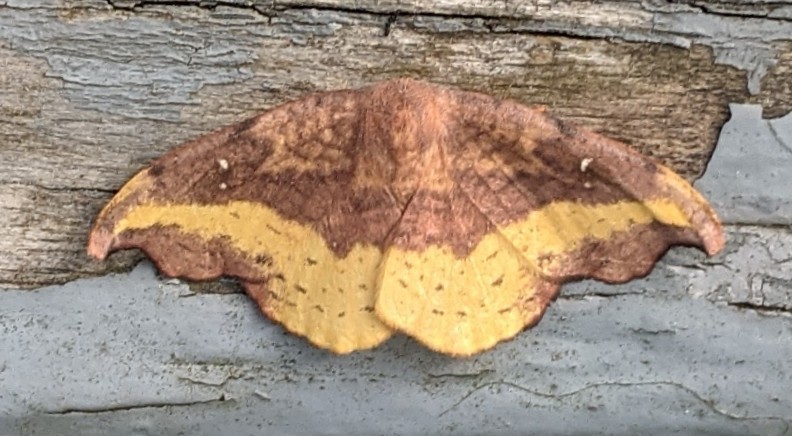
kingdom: Animalia
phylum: Arthropoda
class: Insecta
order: Lepidoptera
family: Drepanidae
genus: Oreta
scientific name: Oreta rosea
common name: Rose hooktip
